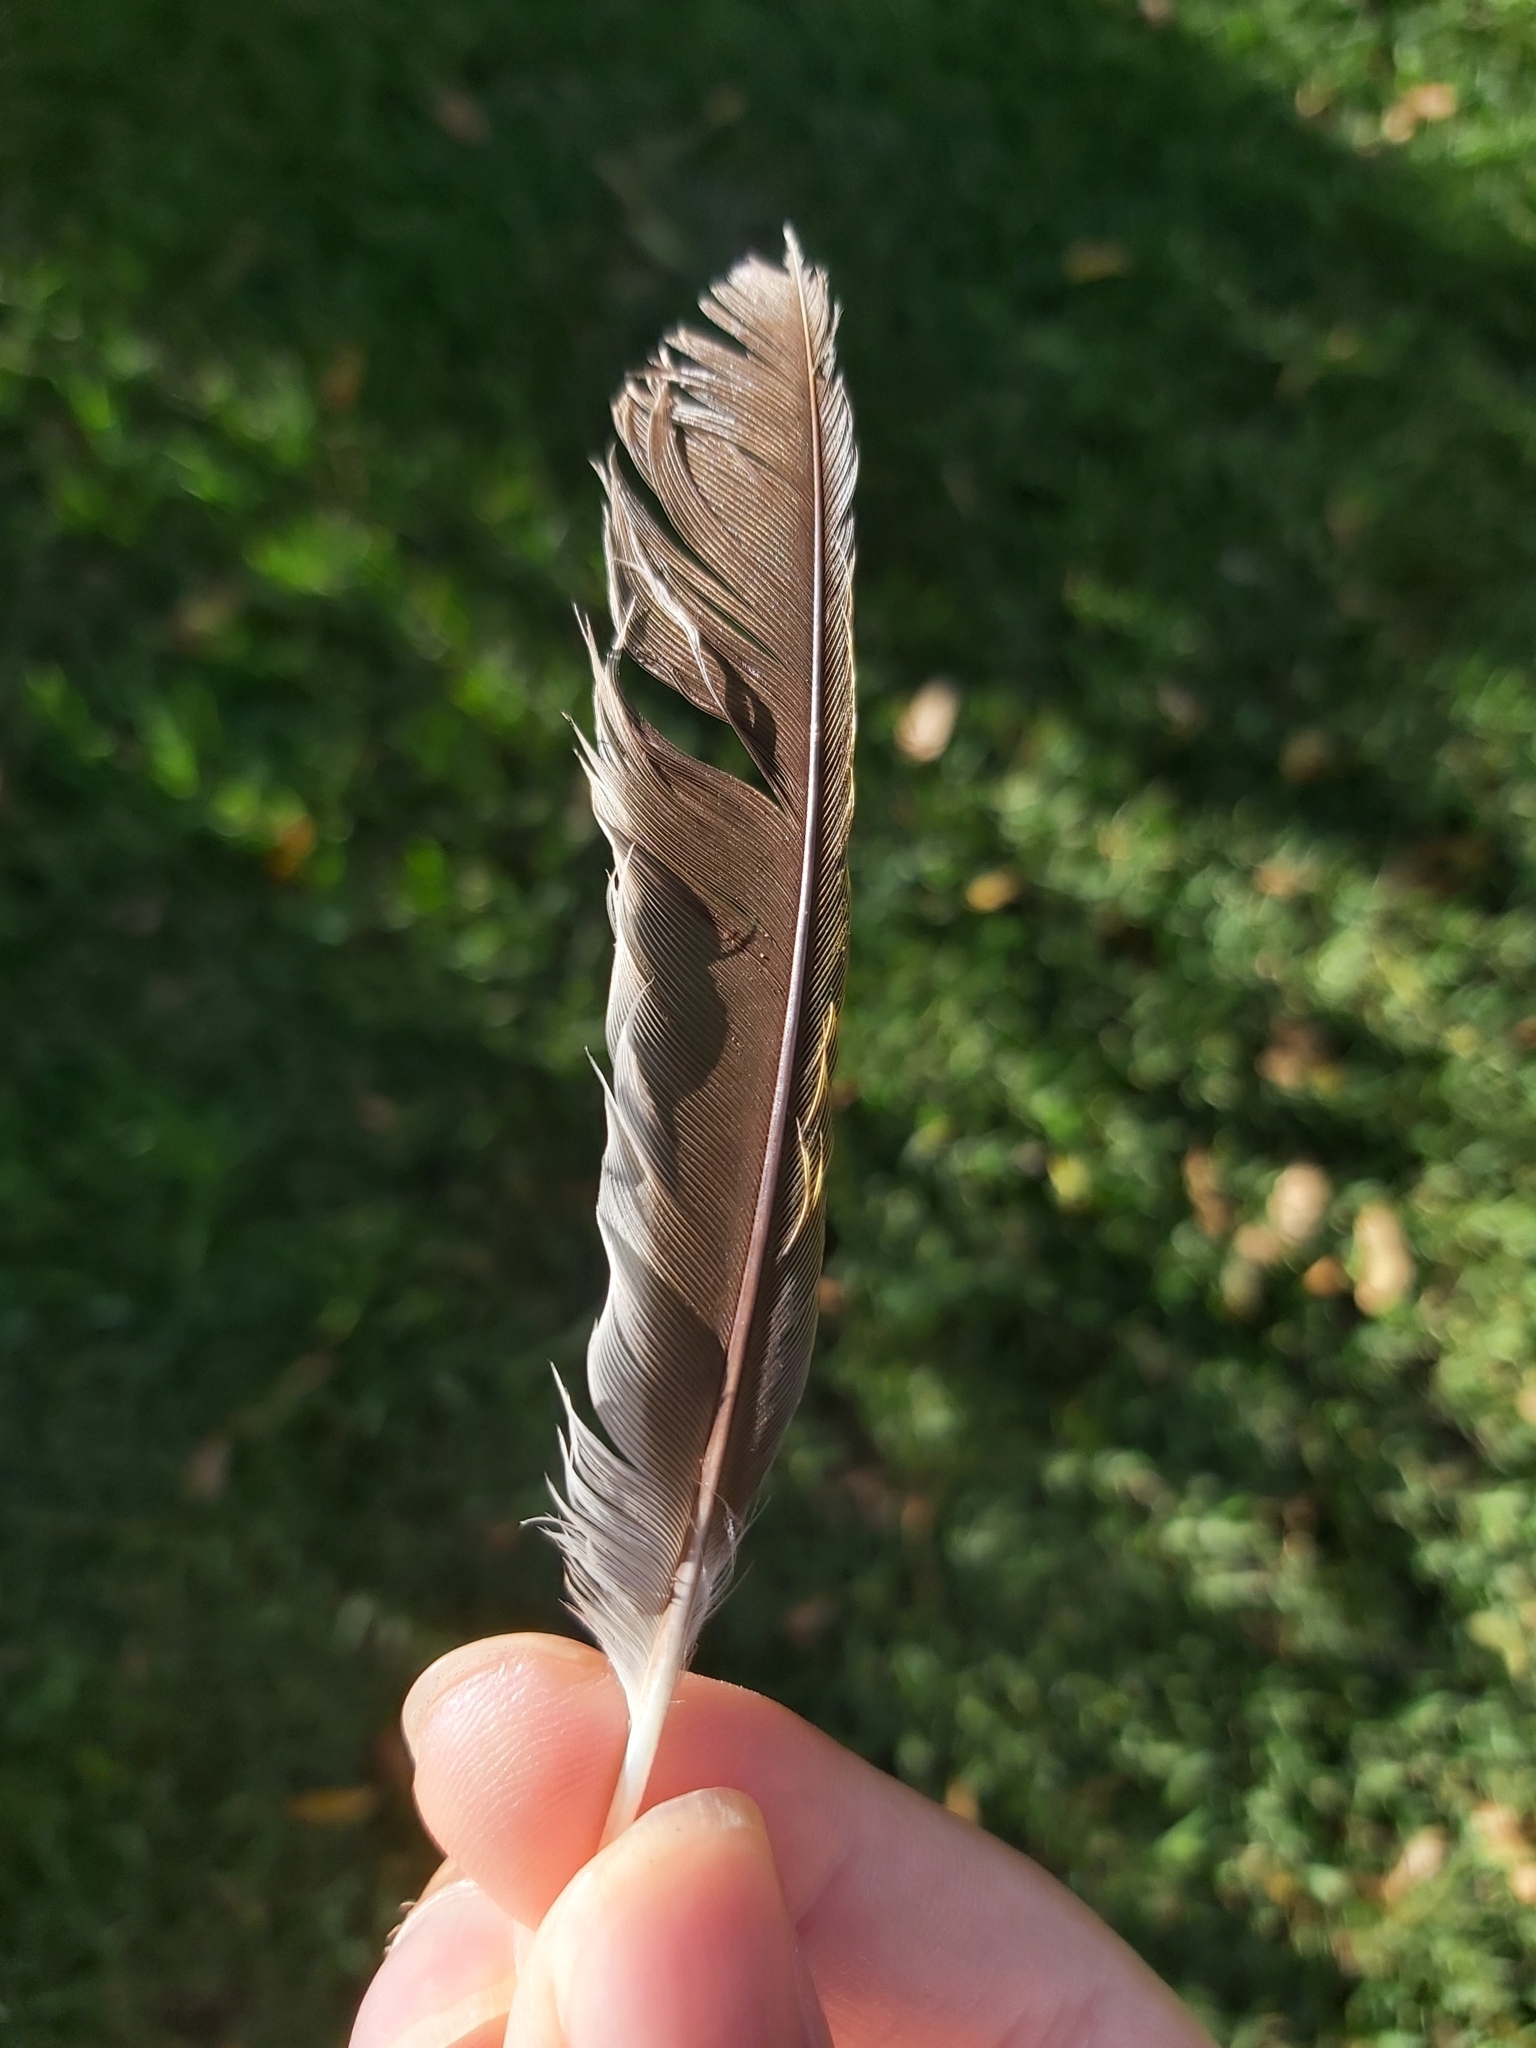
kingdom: Animalia
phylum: Chordata
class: Aves
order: Passeriformes
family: Meliphagidae
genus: Manorina
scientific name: Manorina melanocephala
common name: Noisy miner
